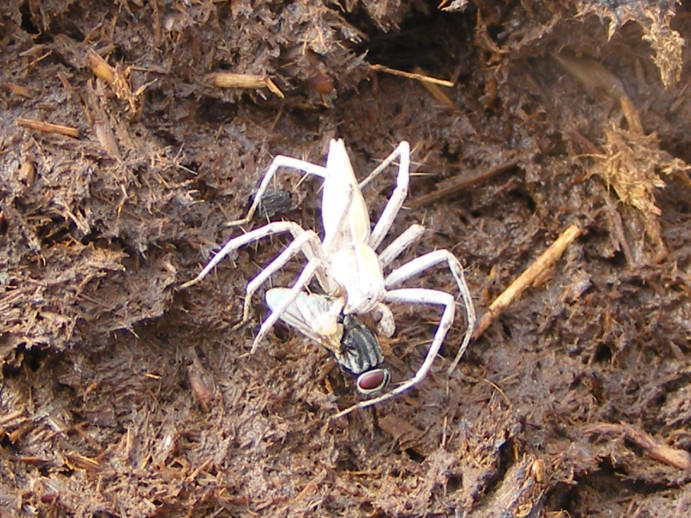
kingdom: Animalia
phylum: Arthropoda
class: Insecta
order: Diptera
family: Muscidae
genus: Musca
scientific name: Musca domestica
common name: House fly
